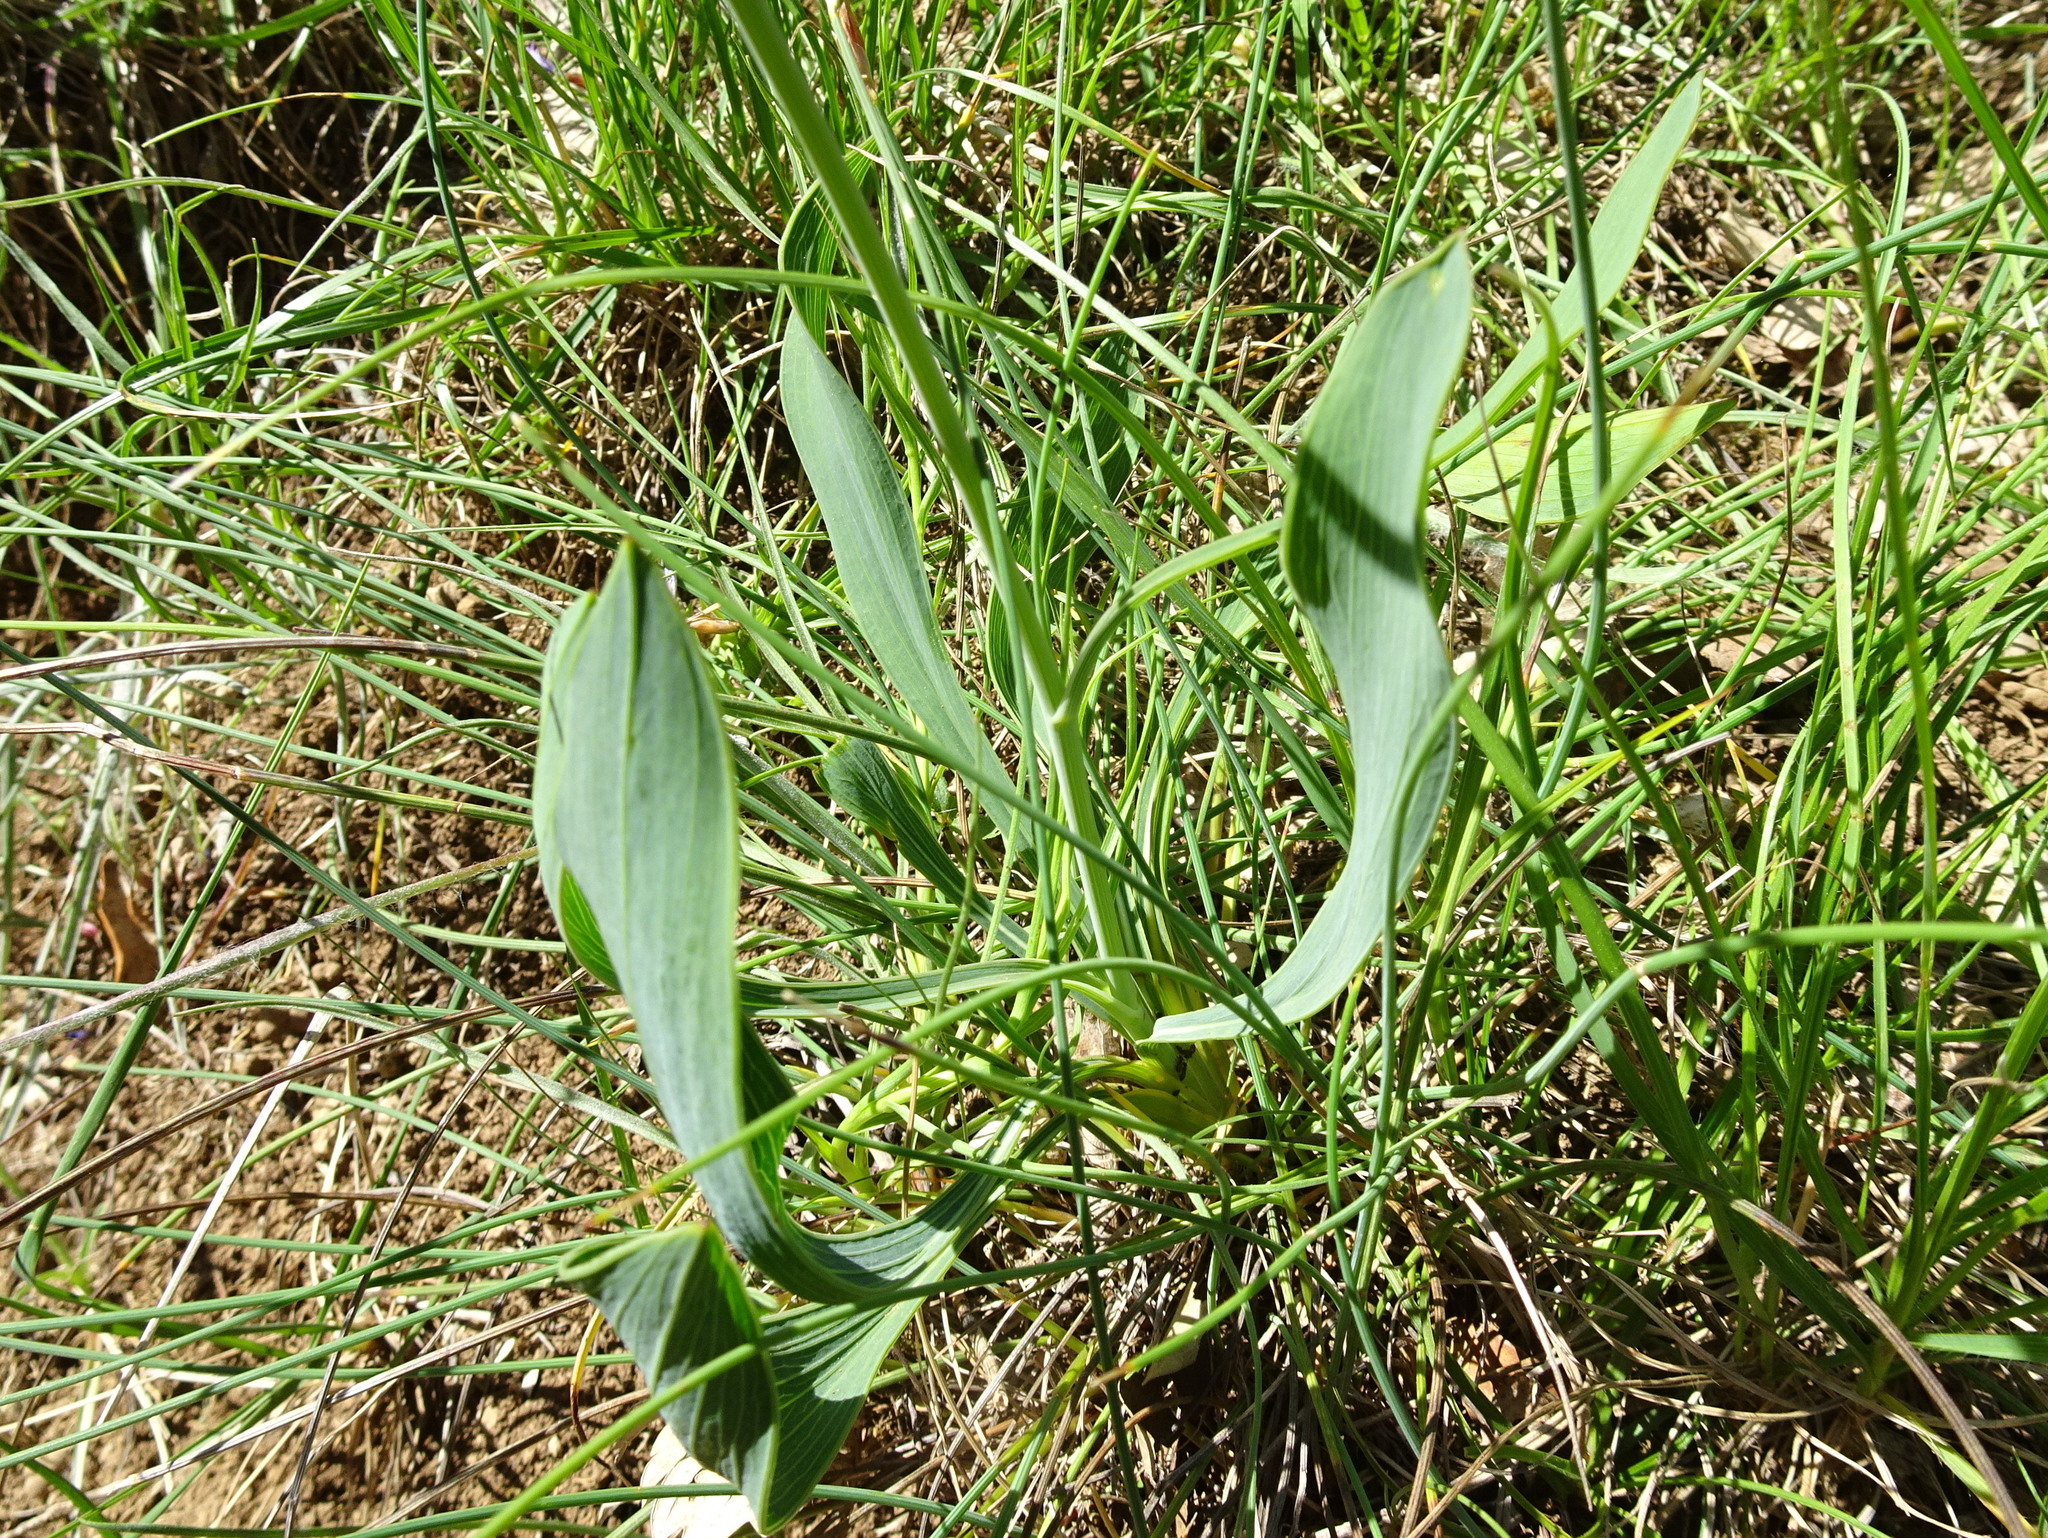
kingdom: Plantae
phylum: Tracheophyta
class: Magnoliopsida
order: Apiales
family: Apiaceae
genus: Bupleurum
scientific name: Bupleurum rigidum
